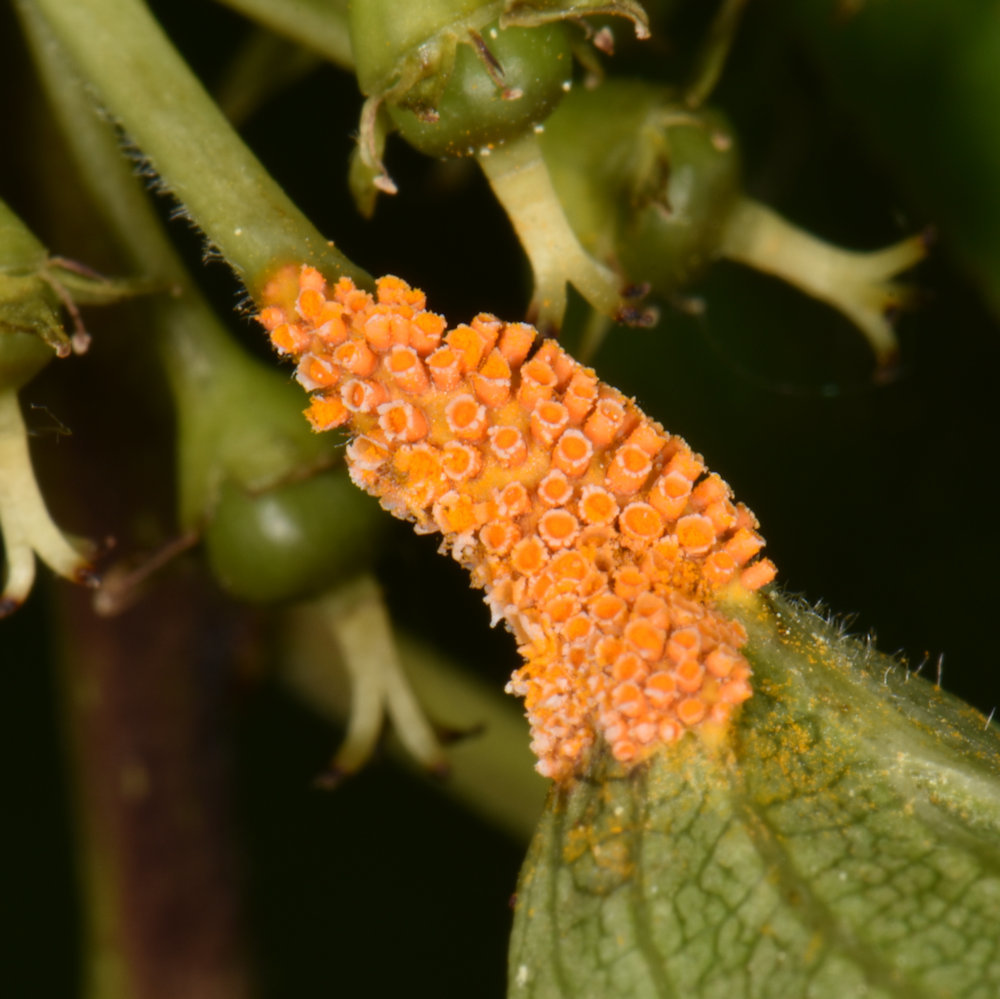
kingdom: Fungi
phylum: Basidiomycota
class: Pucciniomycetes
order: Pucciniales
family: Pucciniaceae
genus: Puccinia
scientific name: Puccinia coronata
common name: Crown rust
